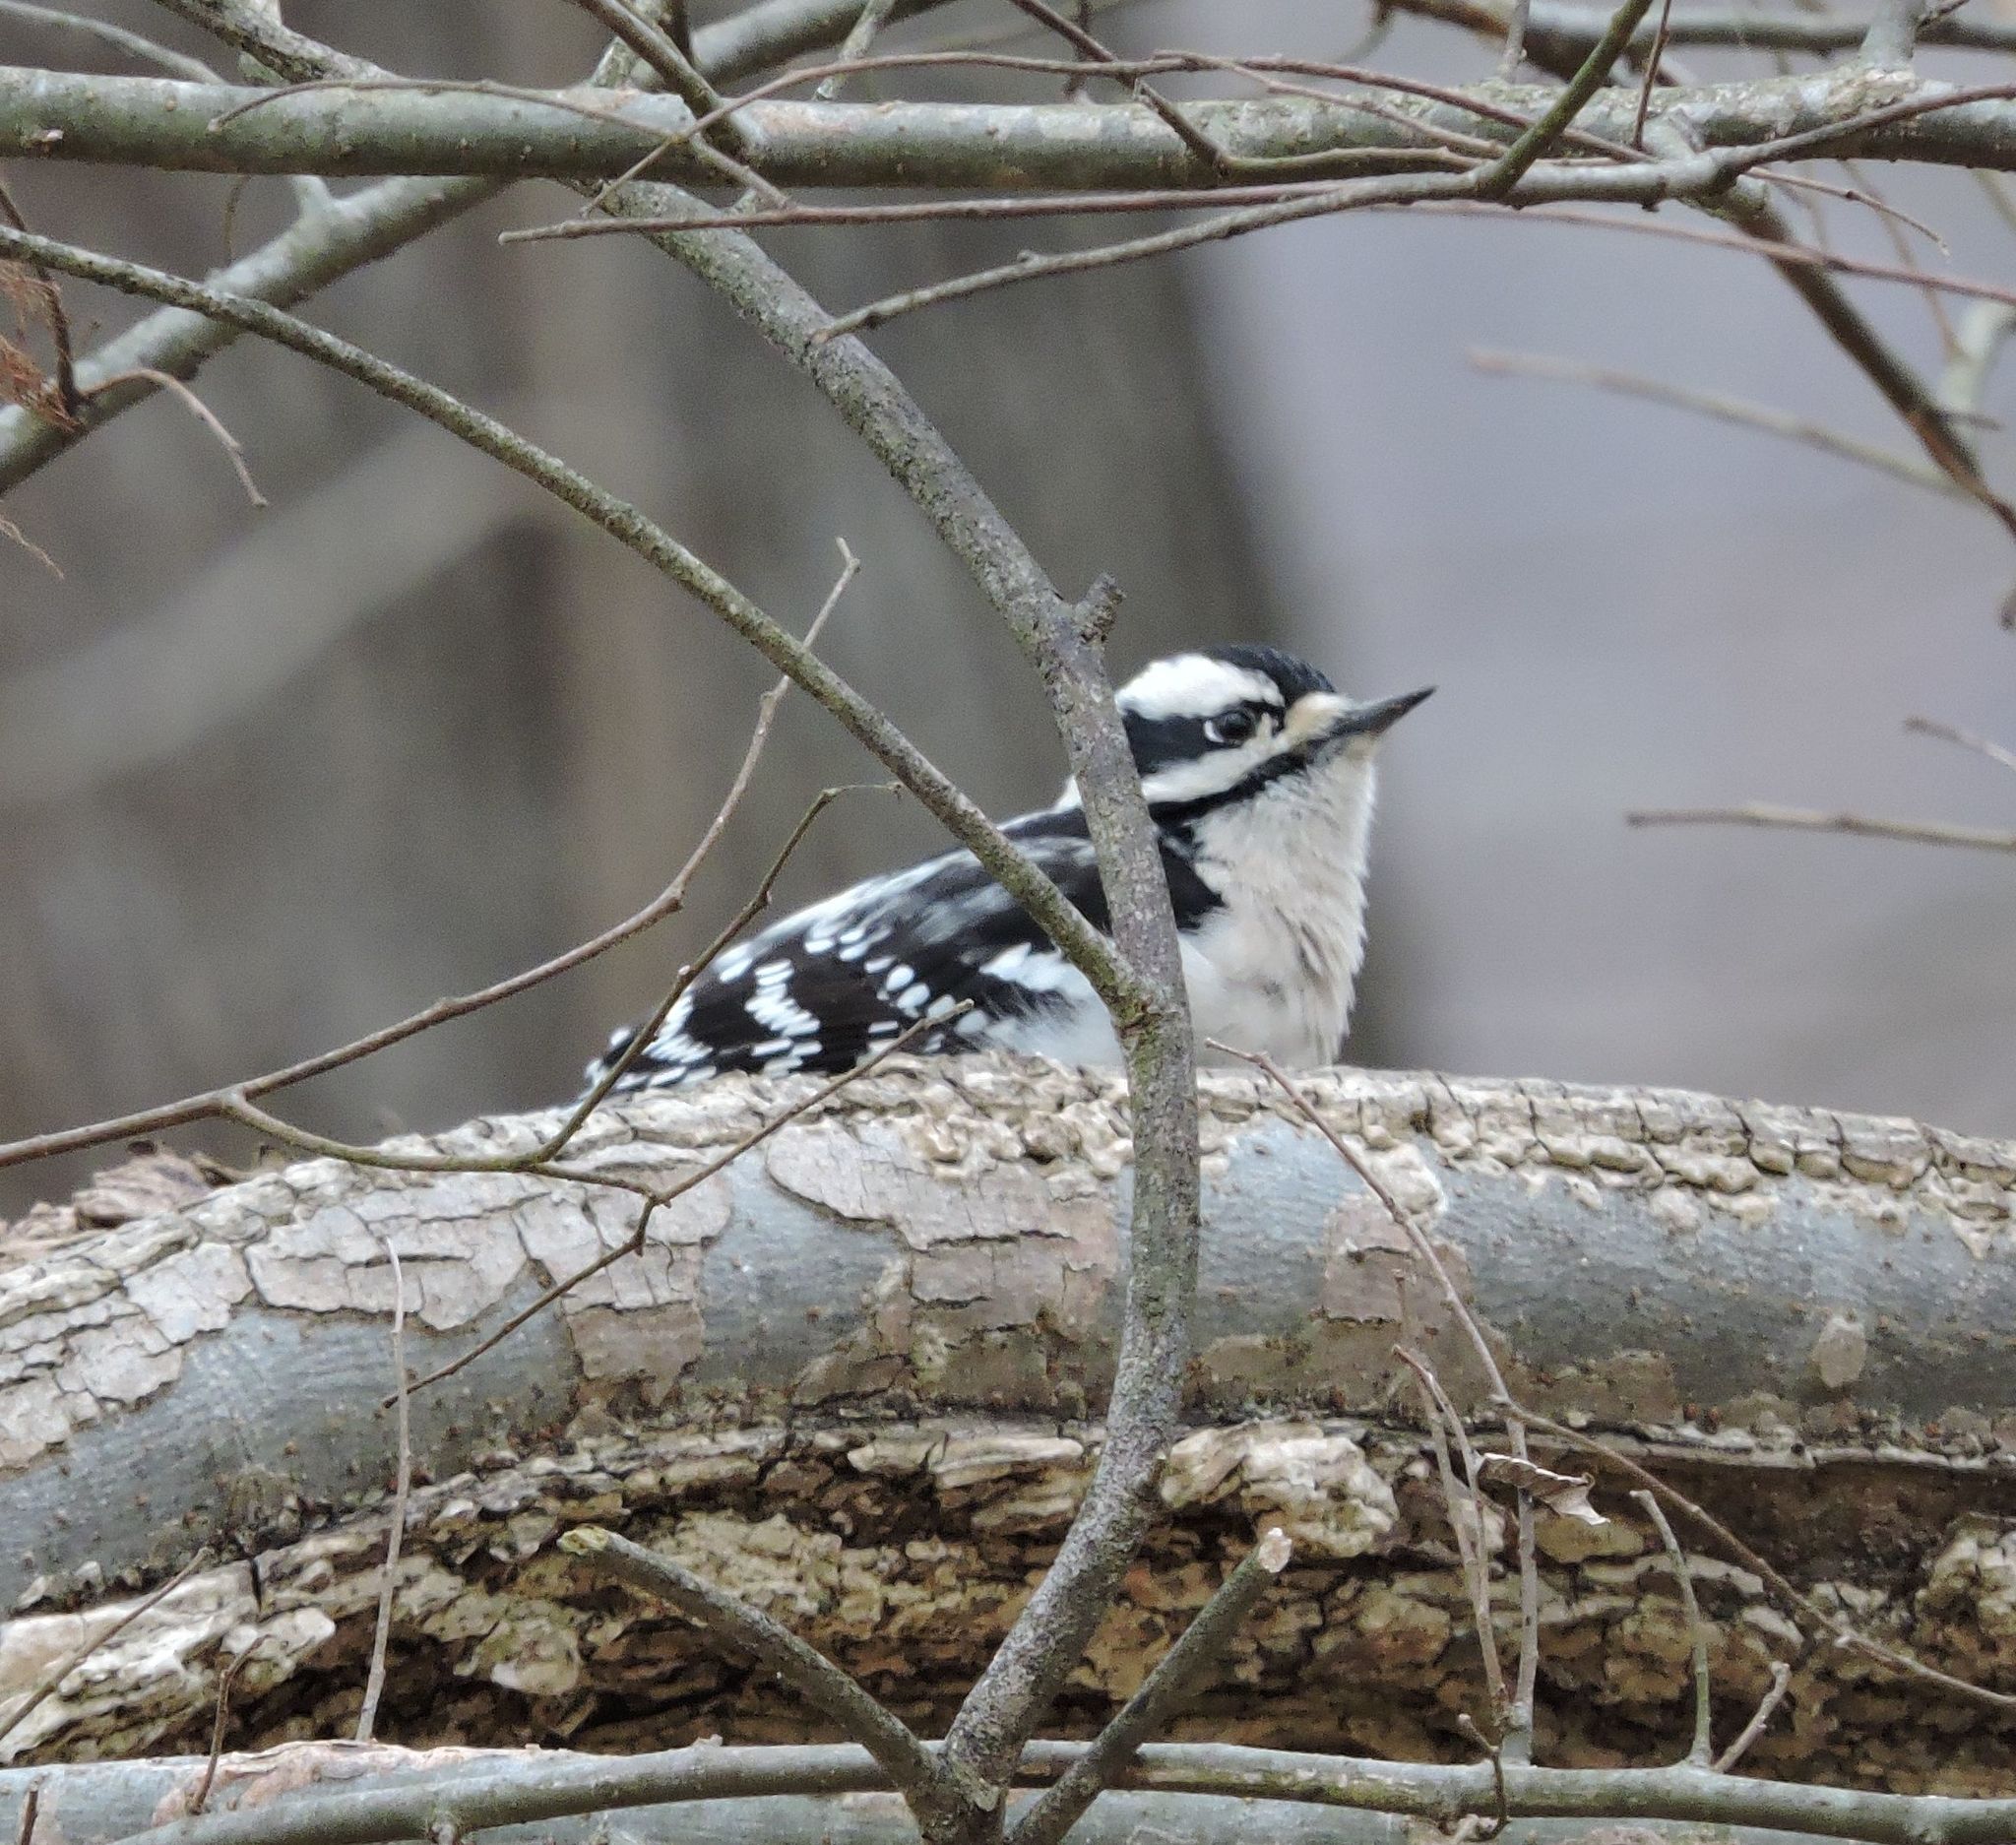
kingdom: Animalia
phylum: Chordata
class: Aves
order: Piciformes
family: Picidae
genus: Dryobates
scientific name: Dryobates pubescens
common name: Downy woodpecker
